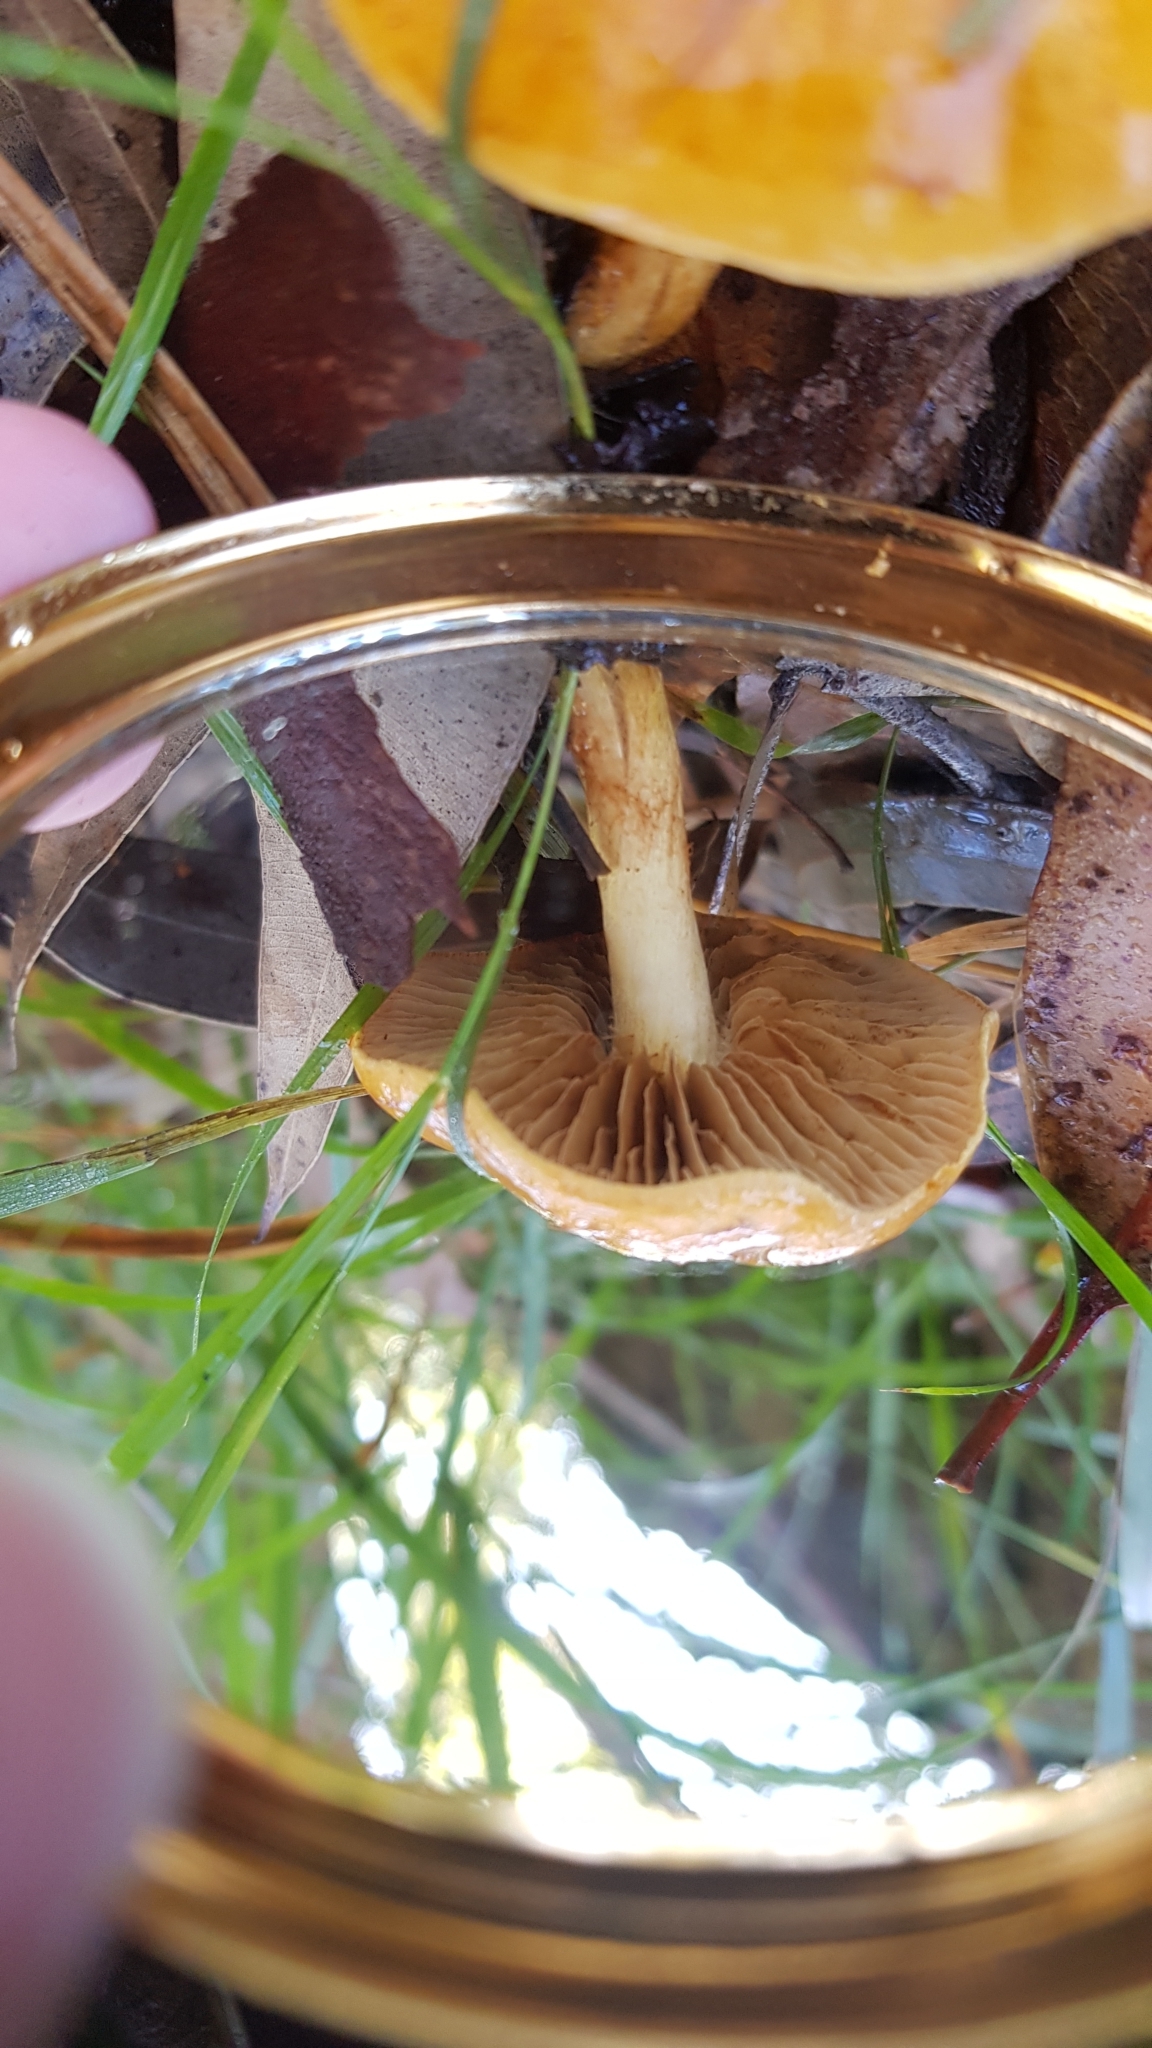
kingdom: Fungi
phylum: Basidiomycota
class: Agaricomycetes
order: Agaricales
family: Cortinariaceae
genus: Cortinarius
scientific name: Cortinarius sinapicolor
